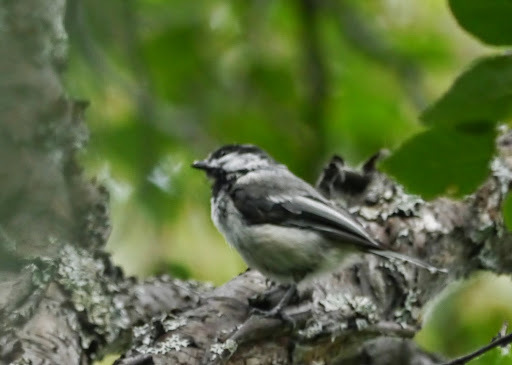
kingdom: Animalia
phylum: Chordata
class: Aves
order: Passeriformes
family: Paridae
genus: Poecile
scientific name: Poecile atricapillus
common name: Black-capped chickadee
